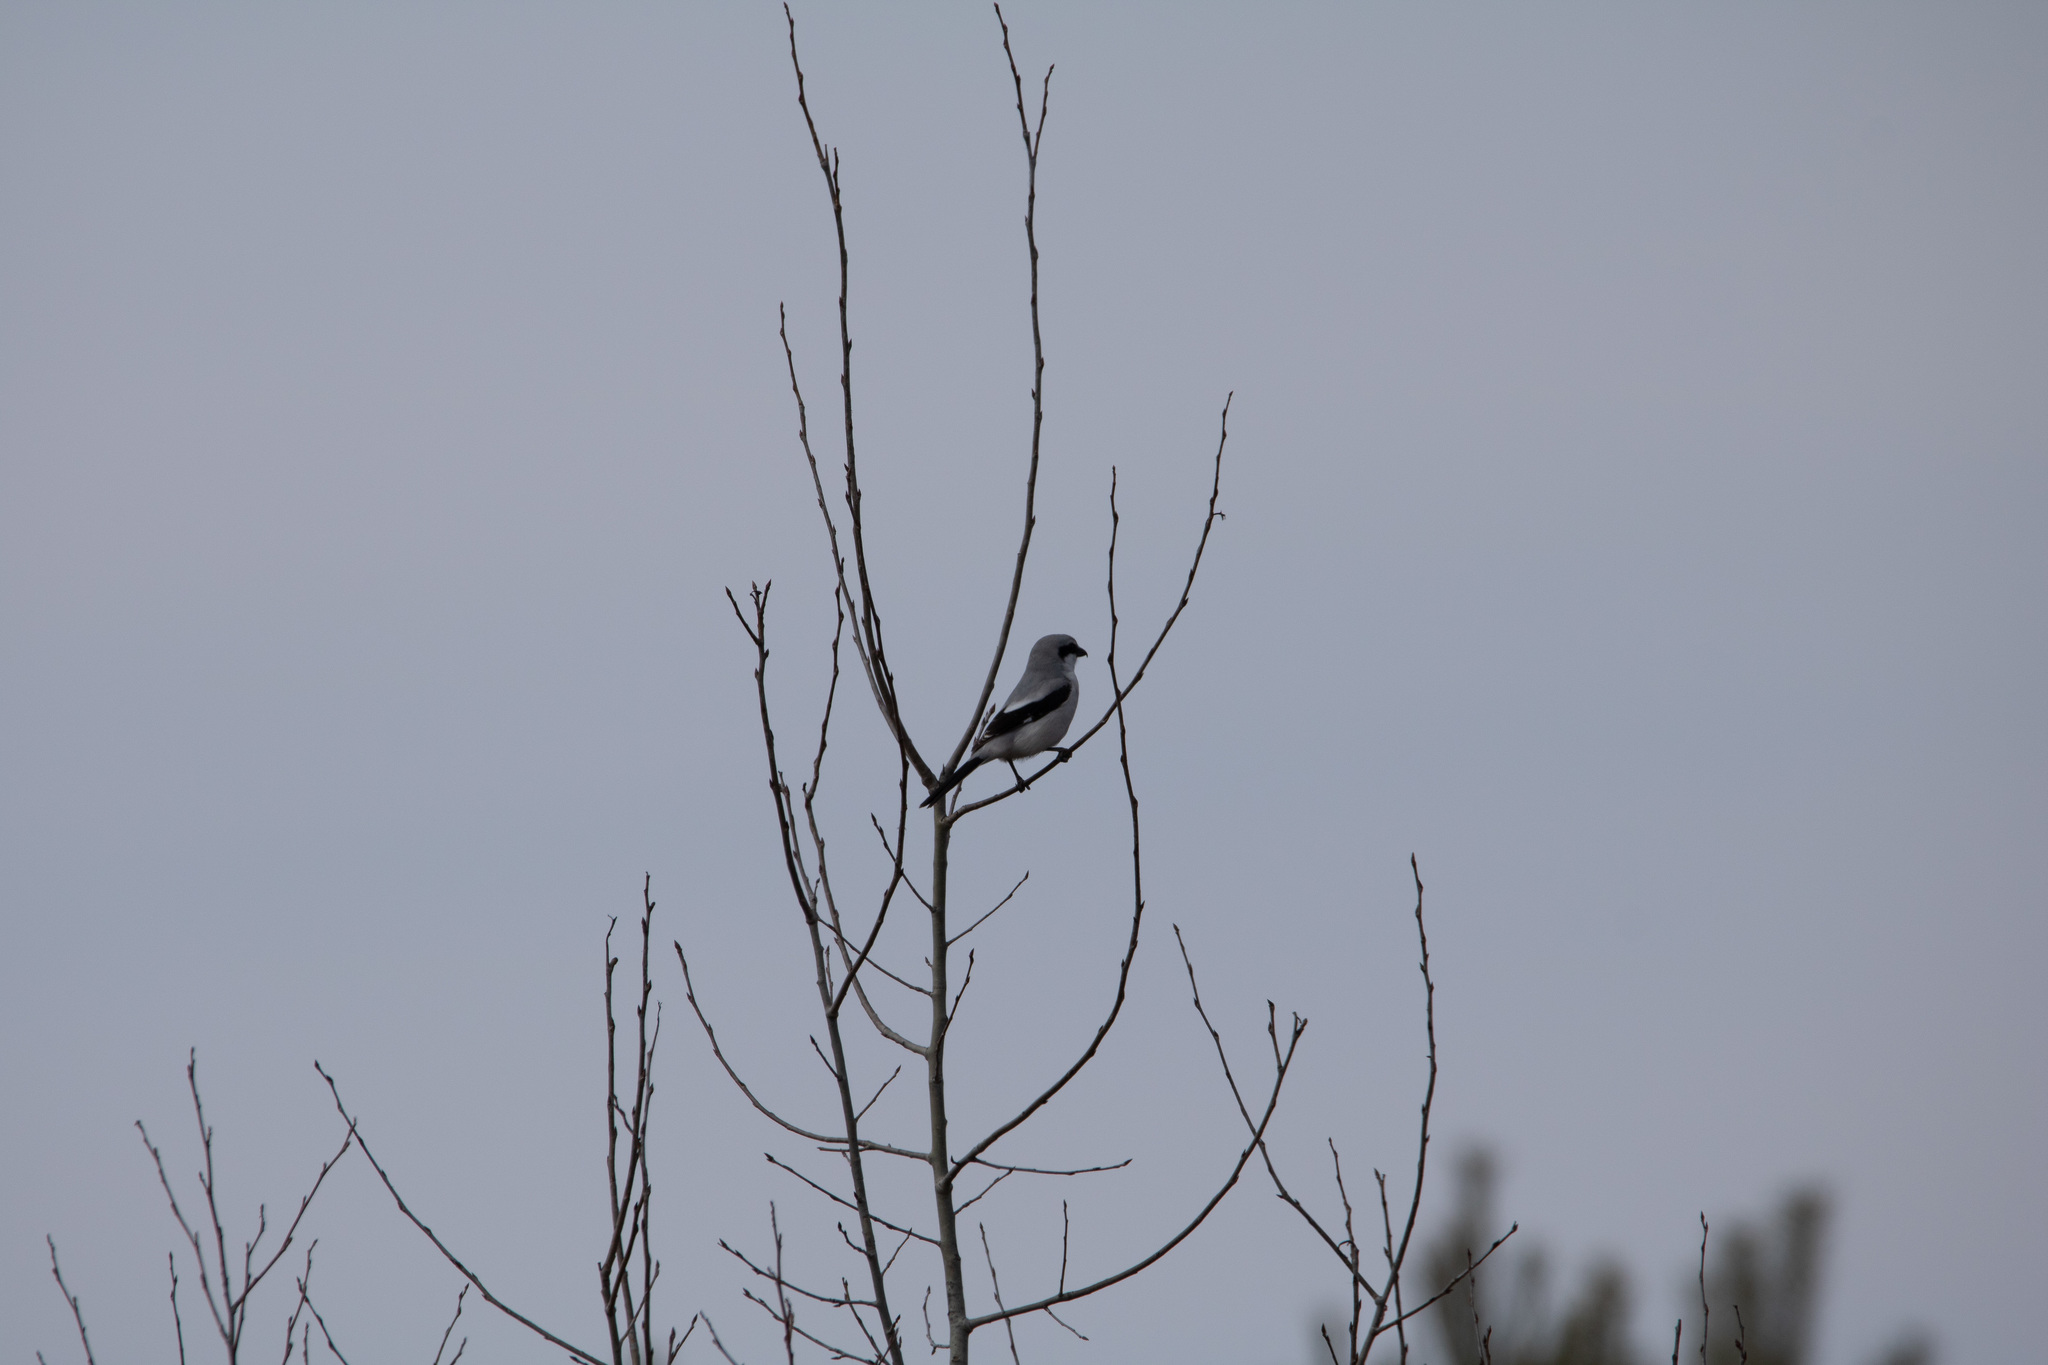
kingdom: Animalia
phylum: Chordata
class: Aves
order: Passeriformes
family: Laniidae
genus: Lanius
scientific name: Lanius excubitor
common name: Great grey shrike
